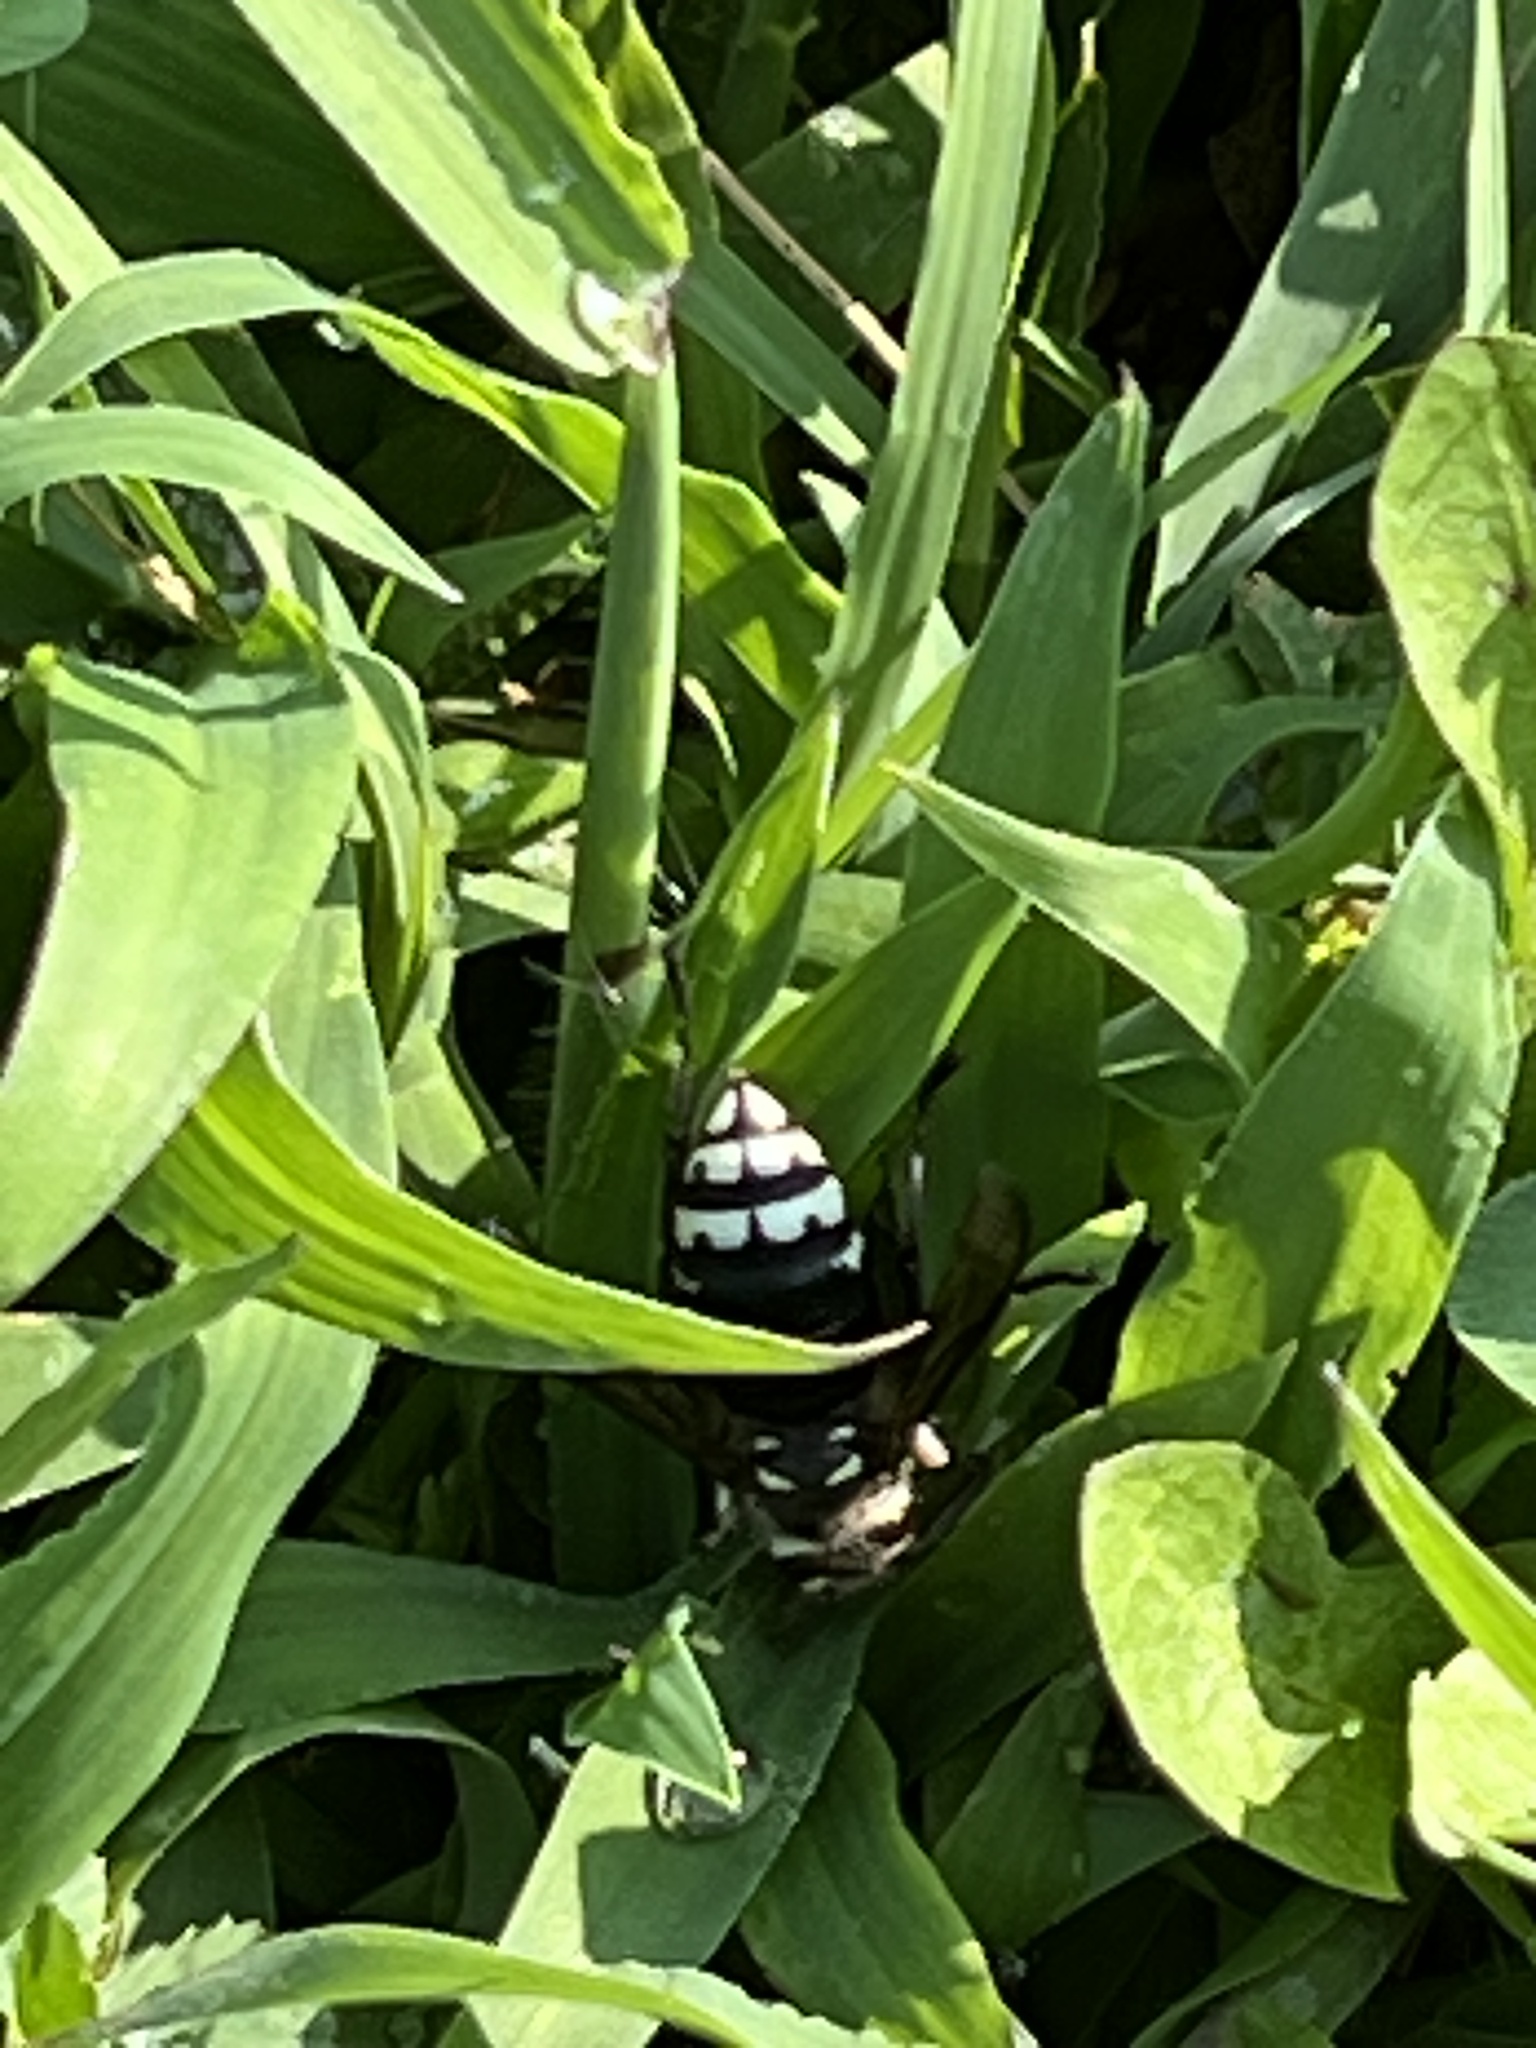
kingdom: Animalia
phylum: Arthropoda
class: Insecta
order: Hymenoptera
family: Vespidae
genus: Dolichovespula
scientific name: Dolichovespula maculata
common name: Bald-faced hornet
